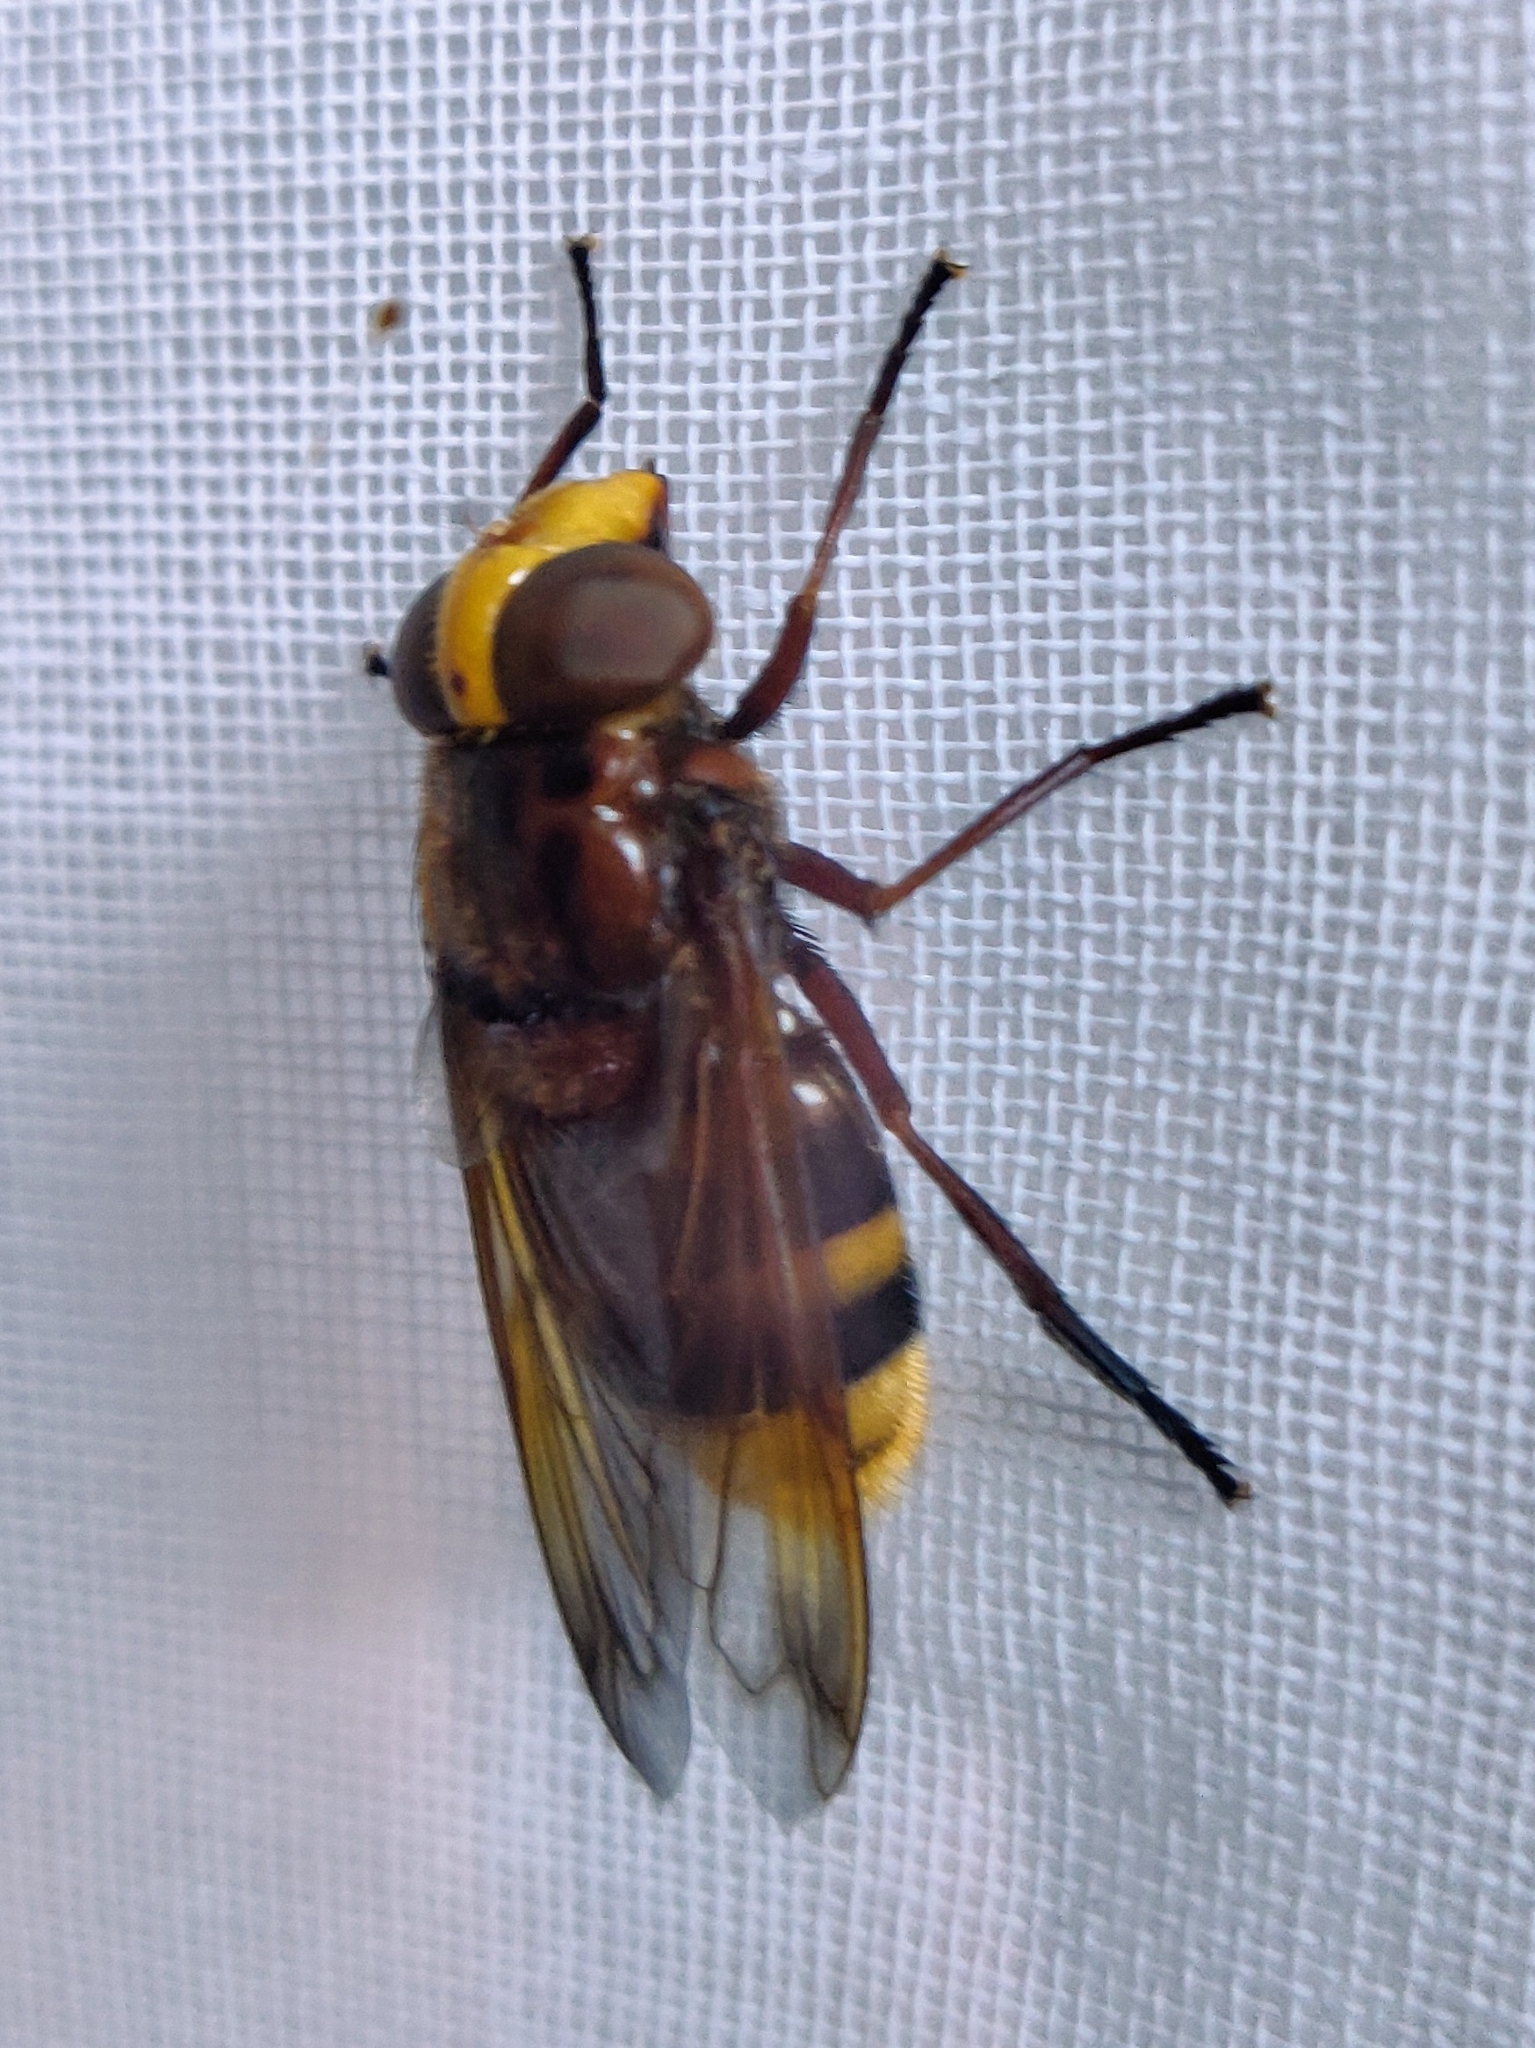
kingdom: Animalia
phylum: Arthropoda
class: Insecta
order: Diptera
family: Syrphidae
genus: Volucella
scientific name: Volucella zonaria
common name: Hornet hoverfly
